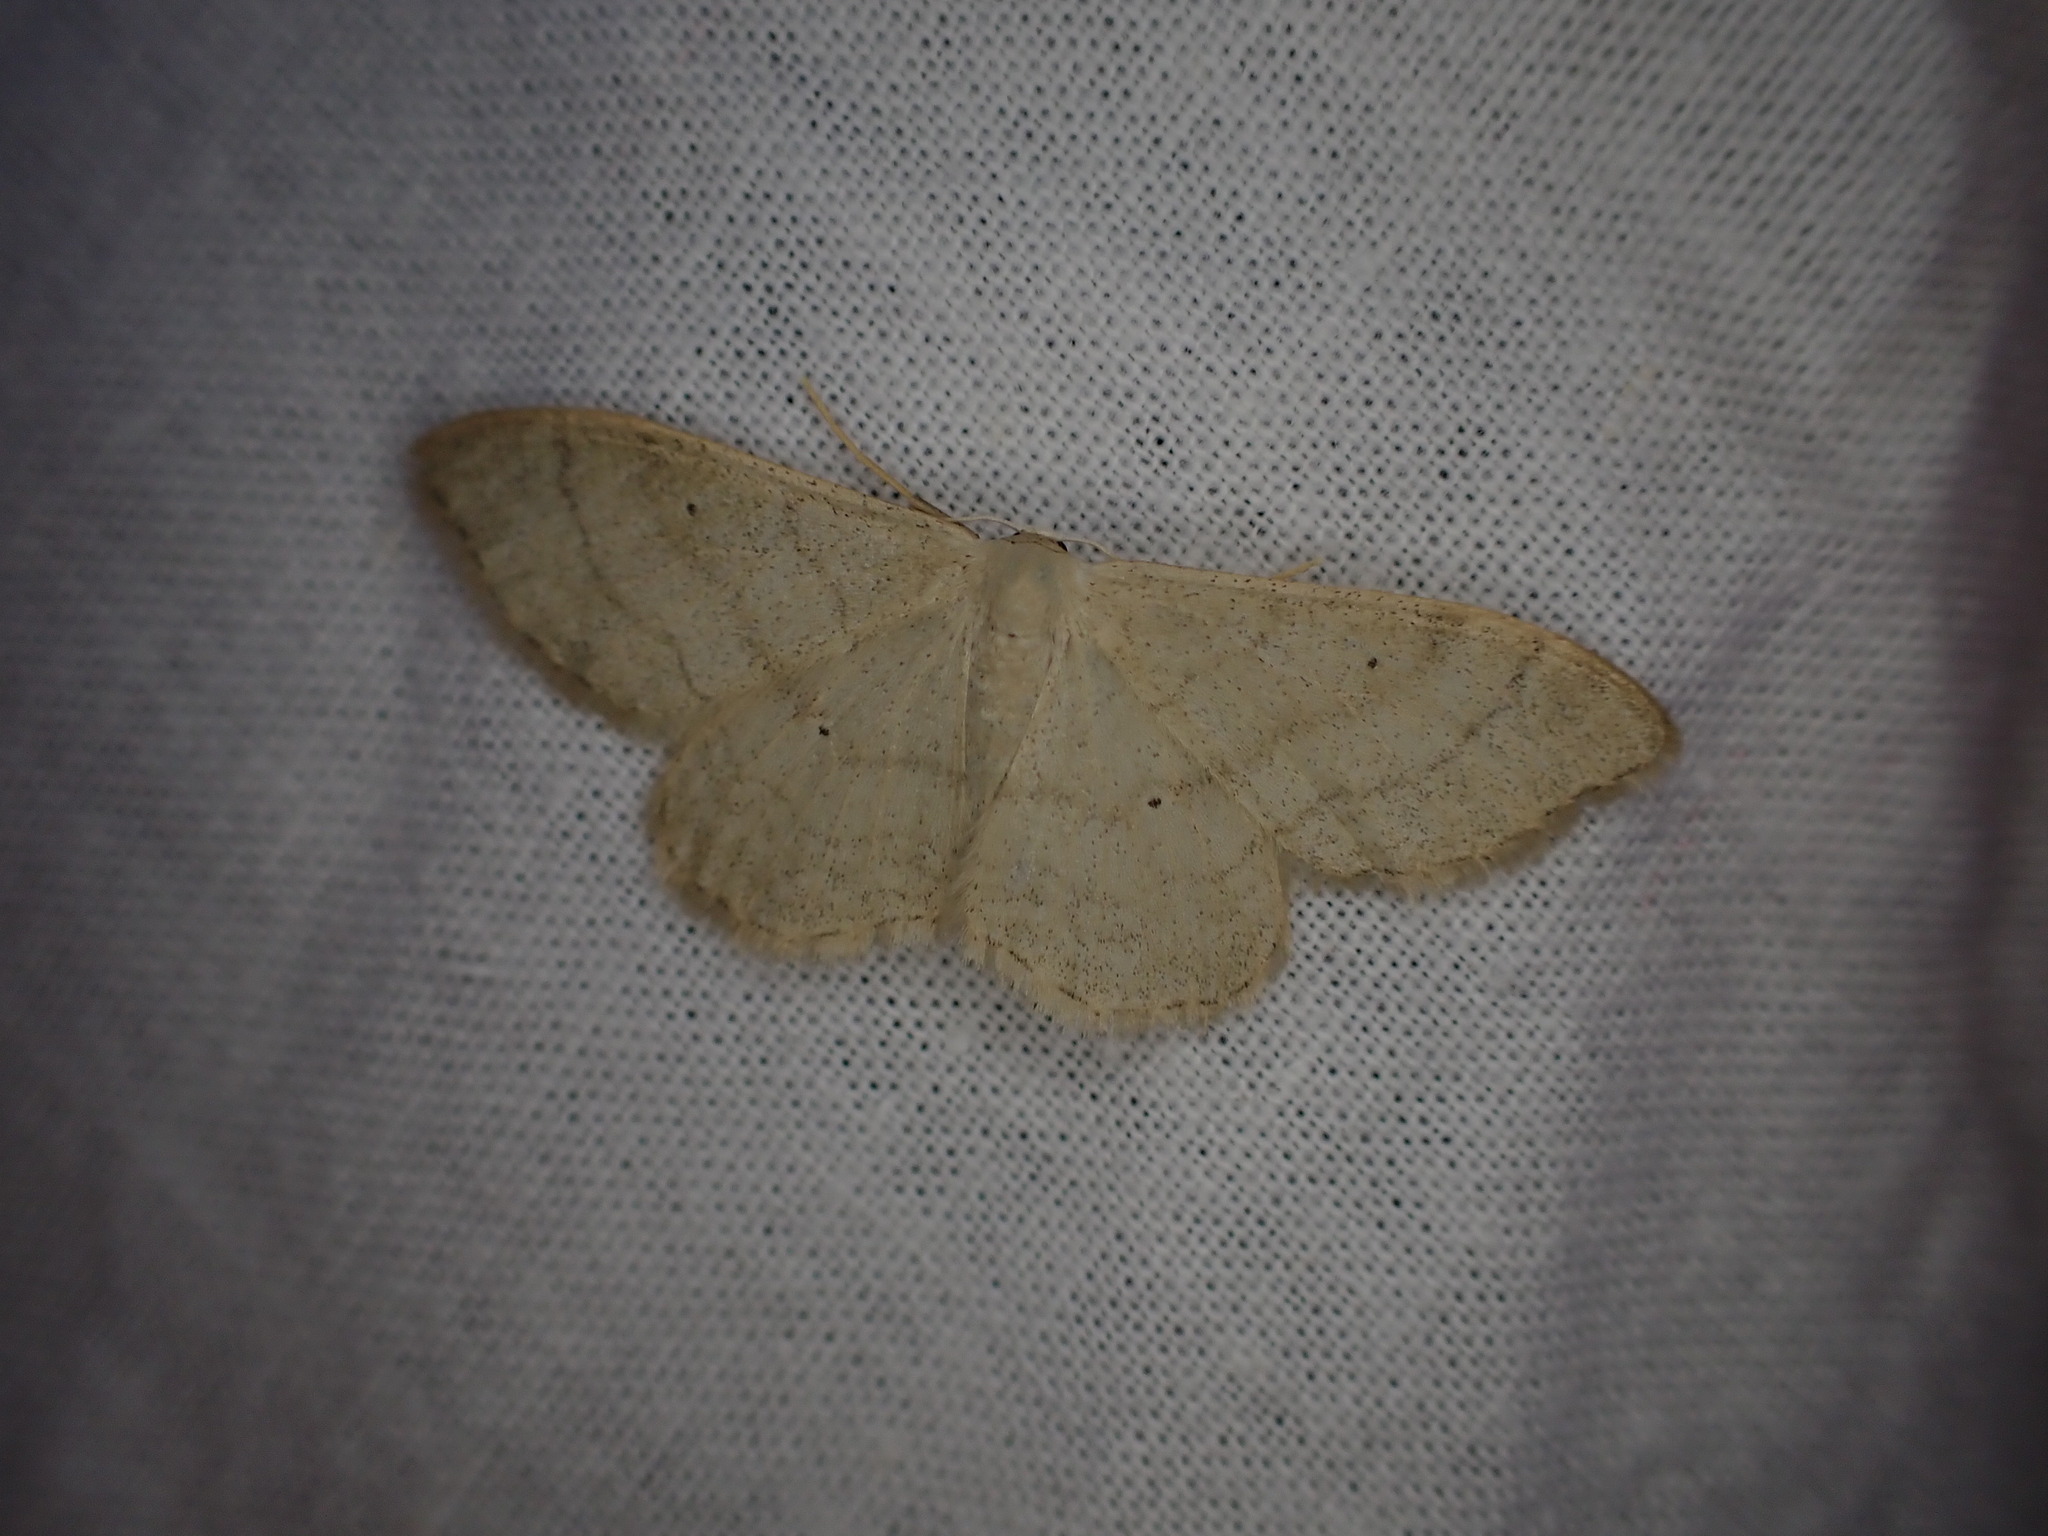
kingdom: Animalia
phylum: Arthropoda
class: Insecta
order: Lepidoptera
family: Geometridae
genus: Idaea
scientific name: Idaea straminata
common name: Plain wave
